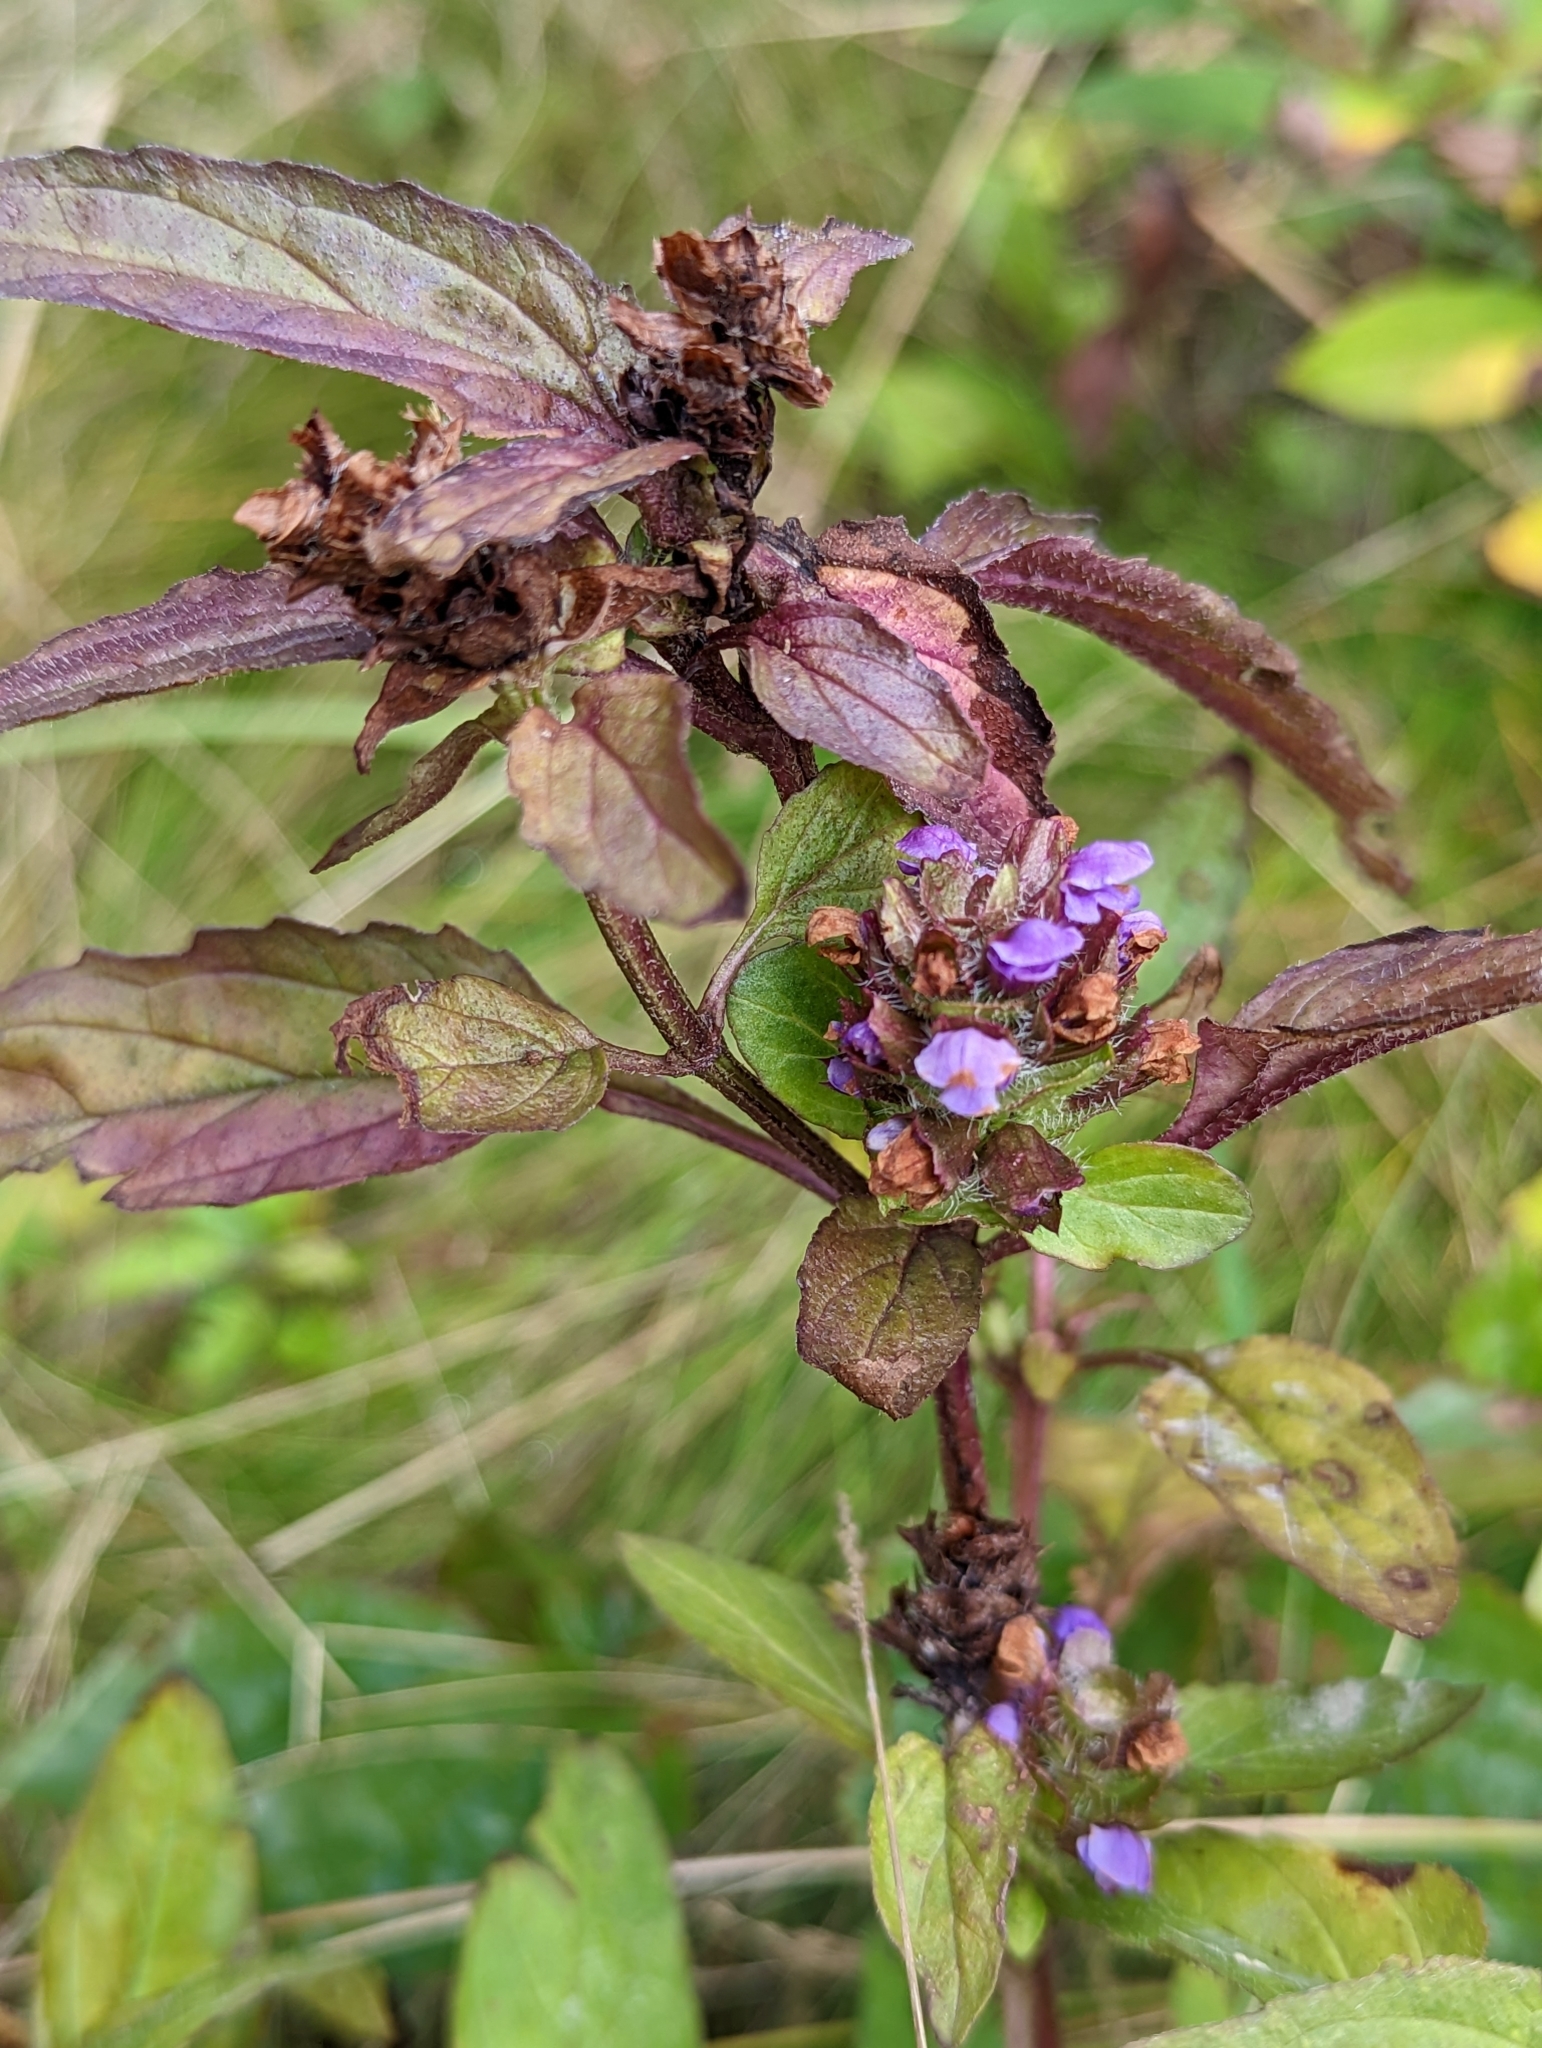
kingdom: Plantae
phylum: Tracheophyta
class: Magnoliopsida
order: Lamiales
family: Lamiaceae
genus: Prunella
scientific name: Prunella vulgaris
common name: Heal-all
